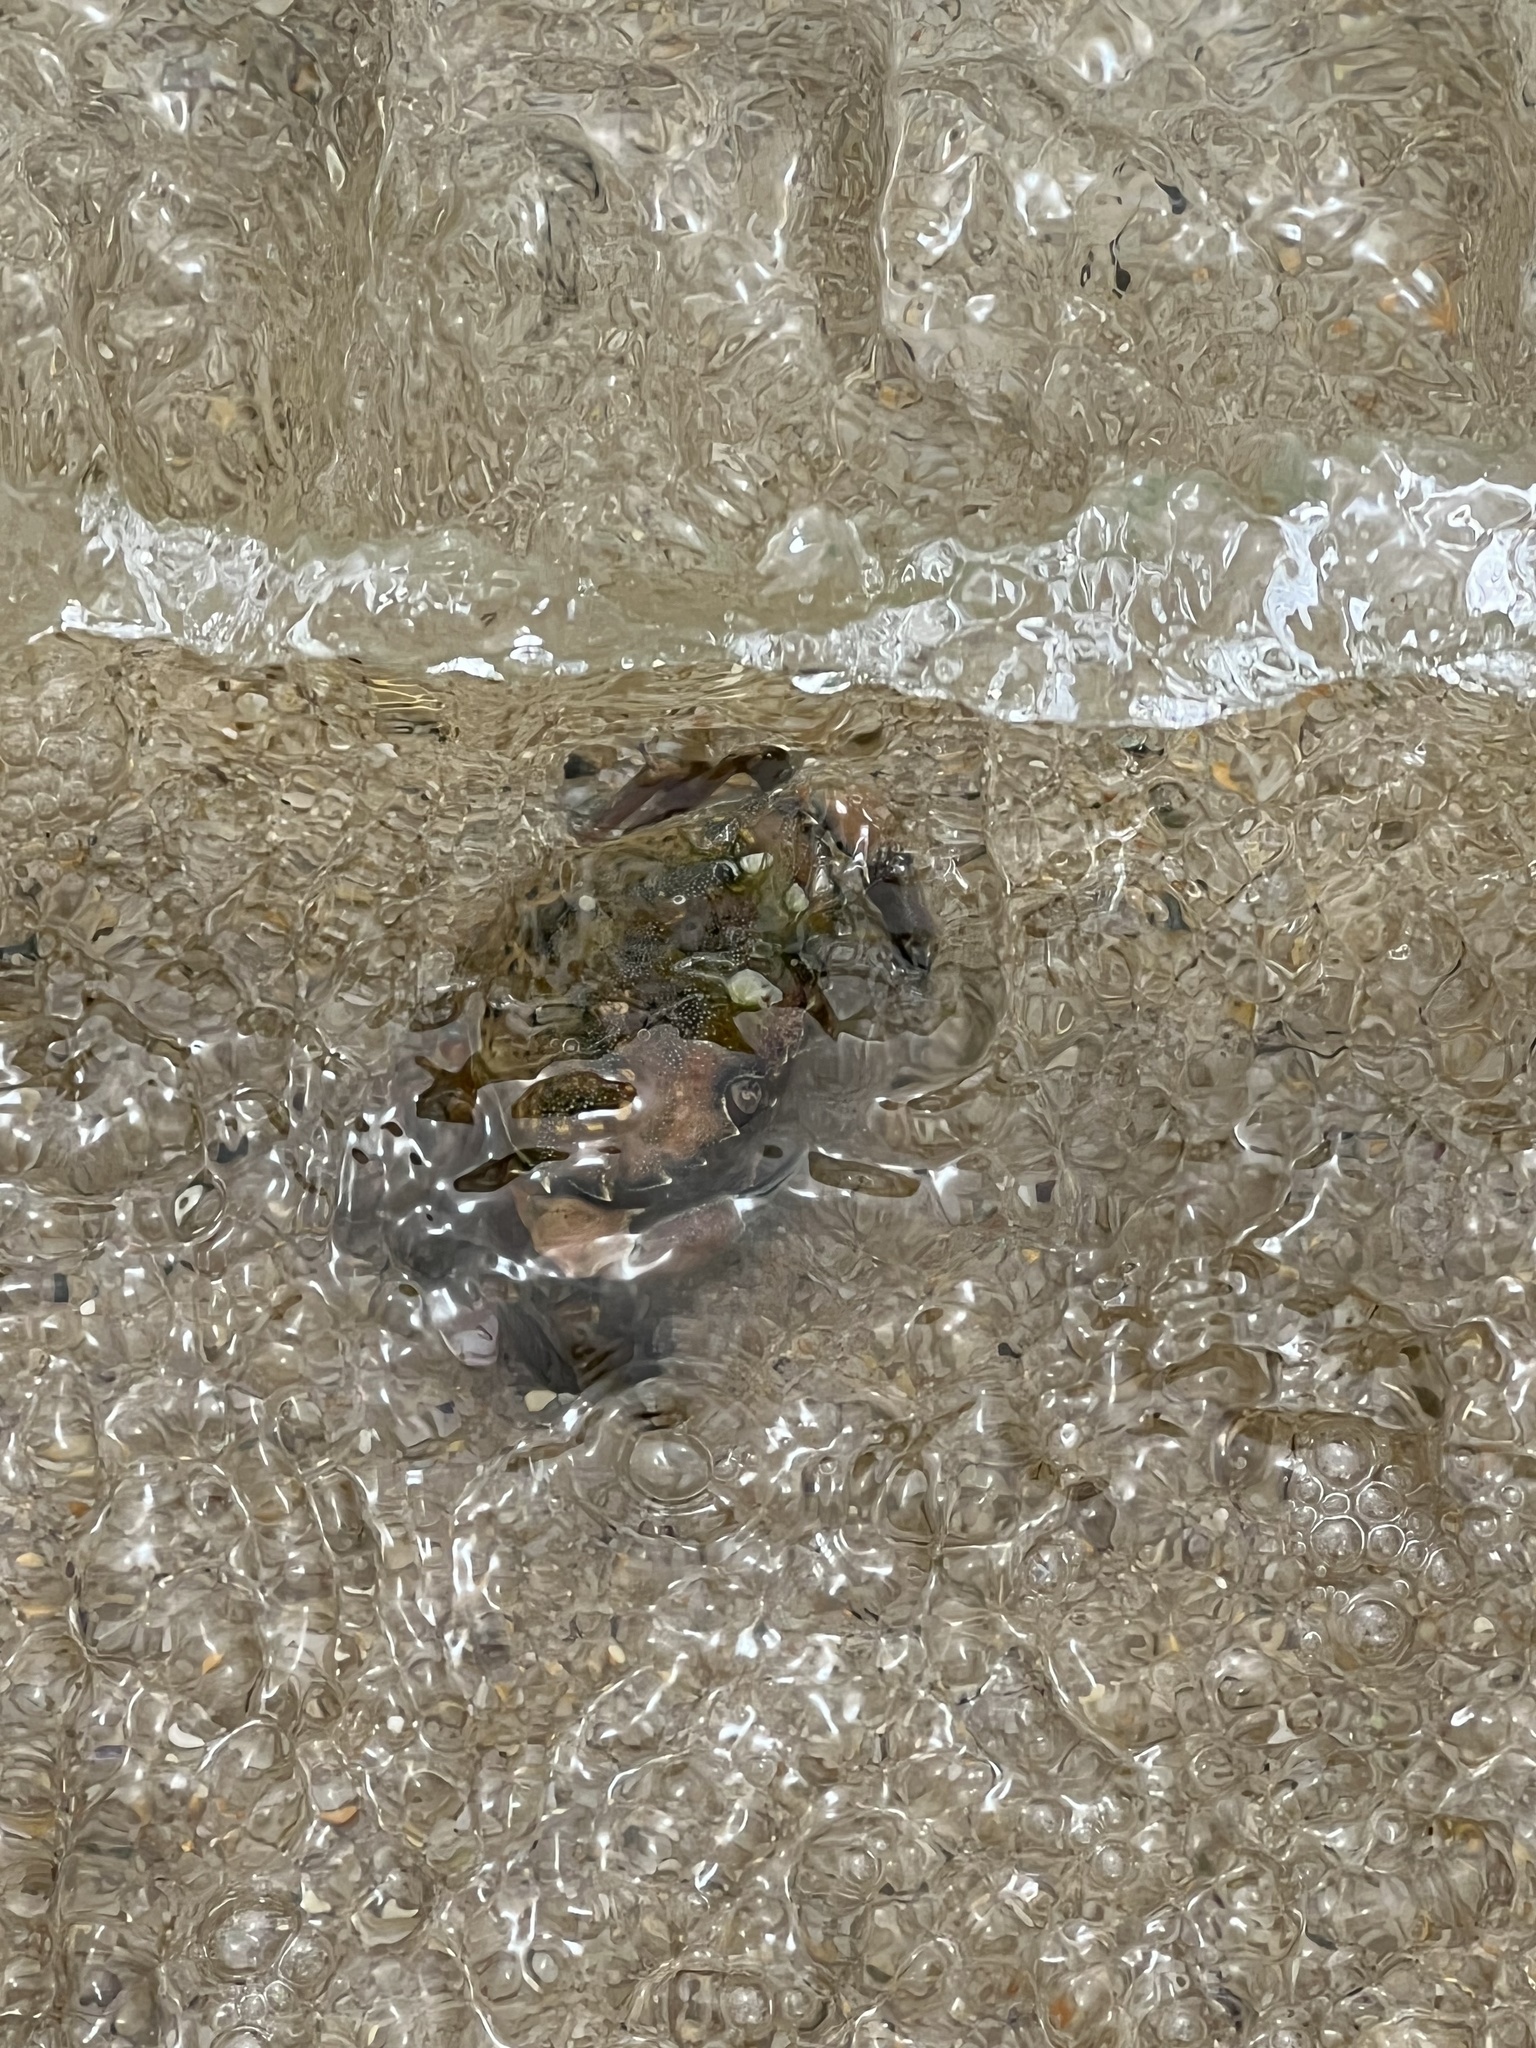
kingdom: Animalia
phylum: Arthropoda
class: Malacostraca
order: Decapoda
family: Carcinidae
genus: Carcinus
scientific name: Carcinus maenas
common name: European green crab
